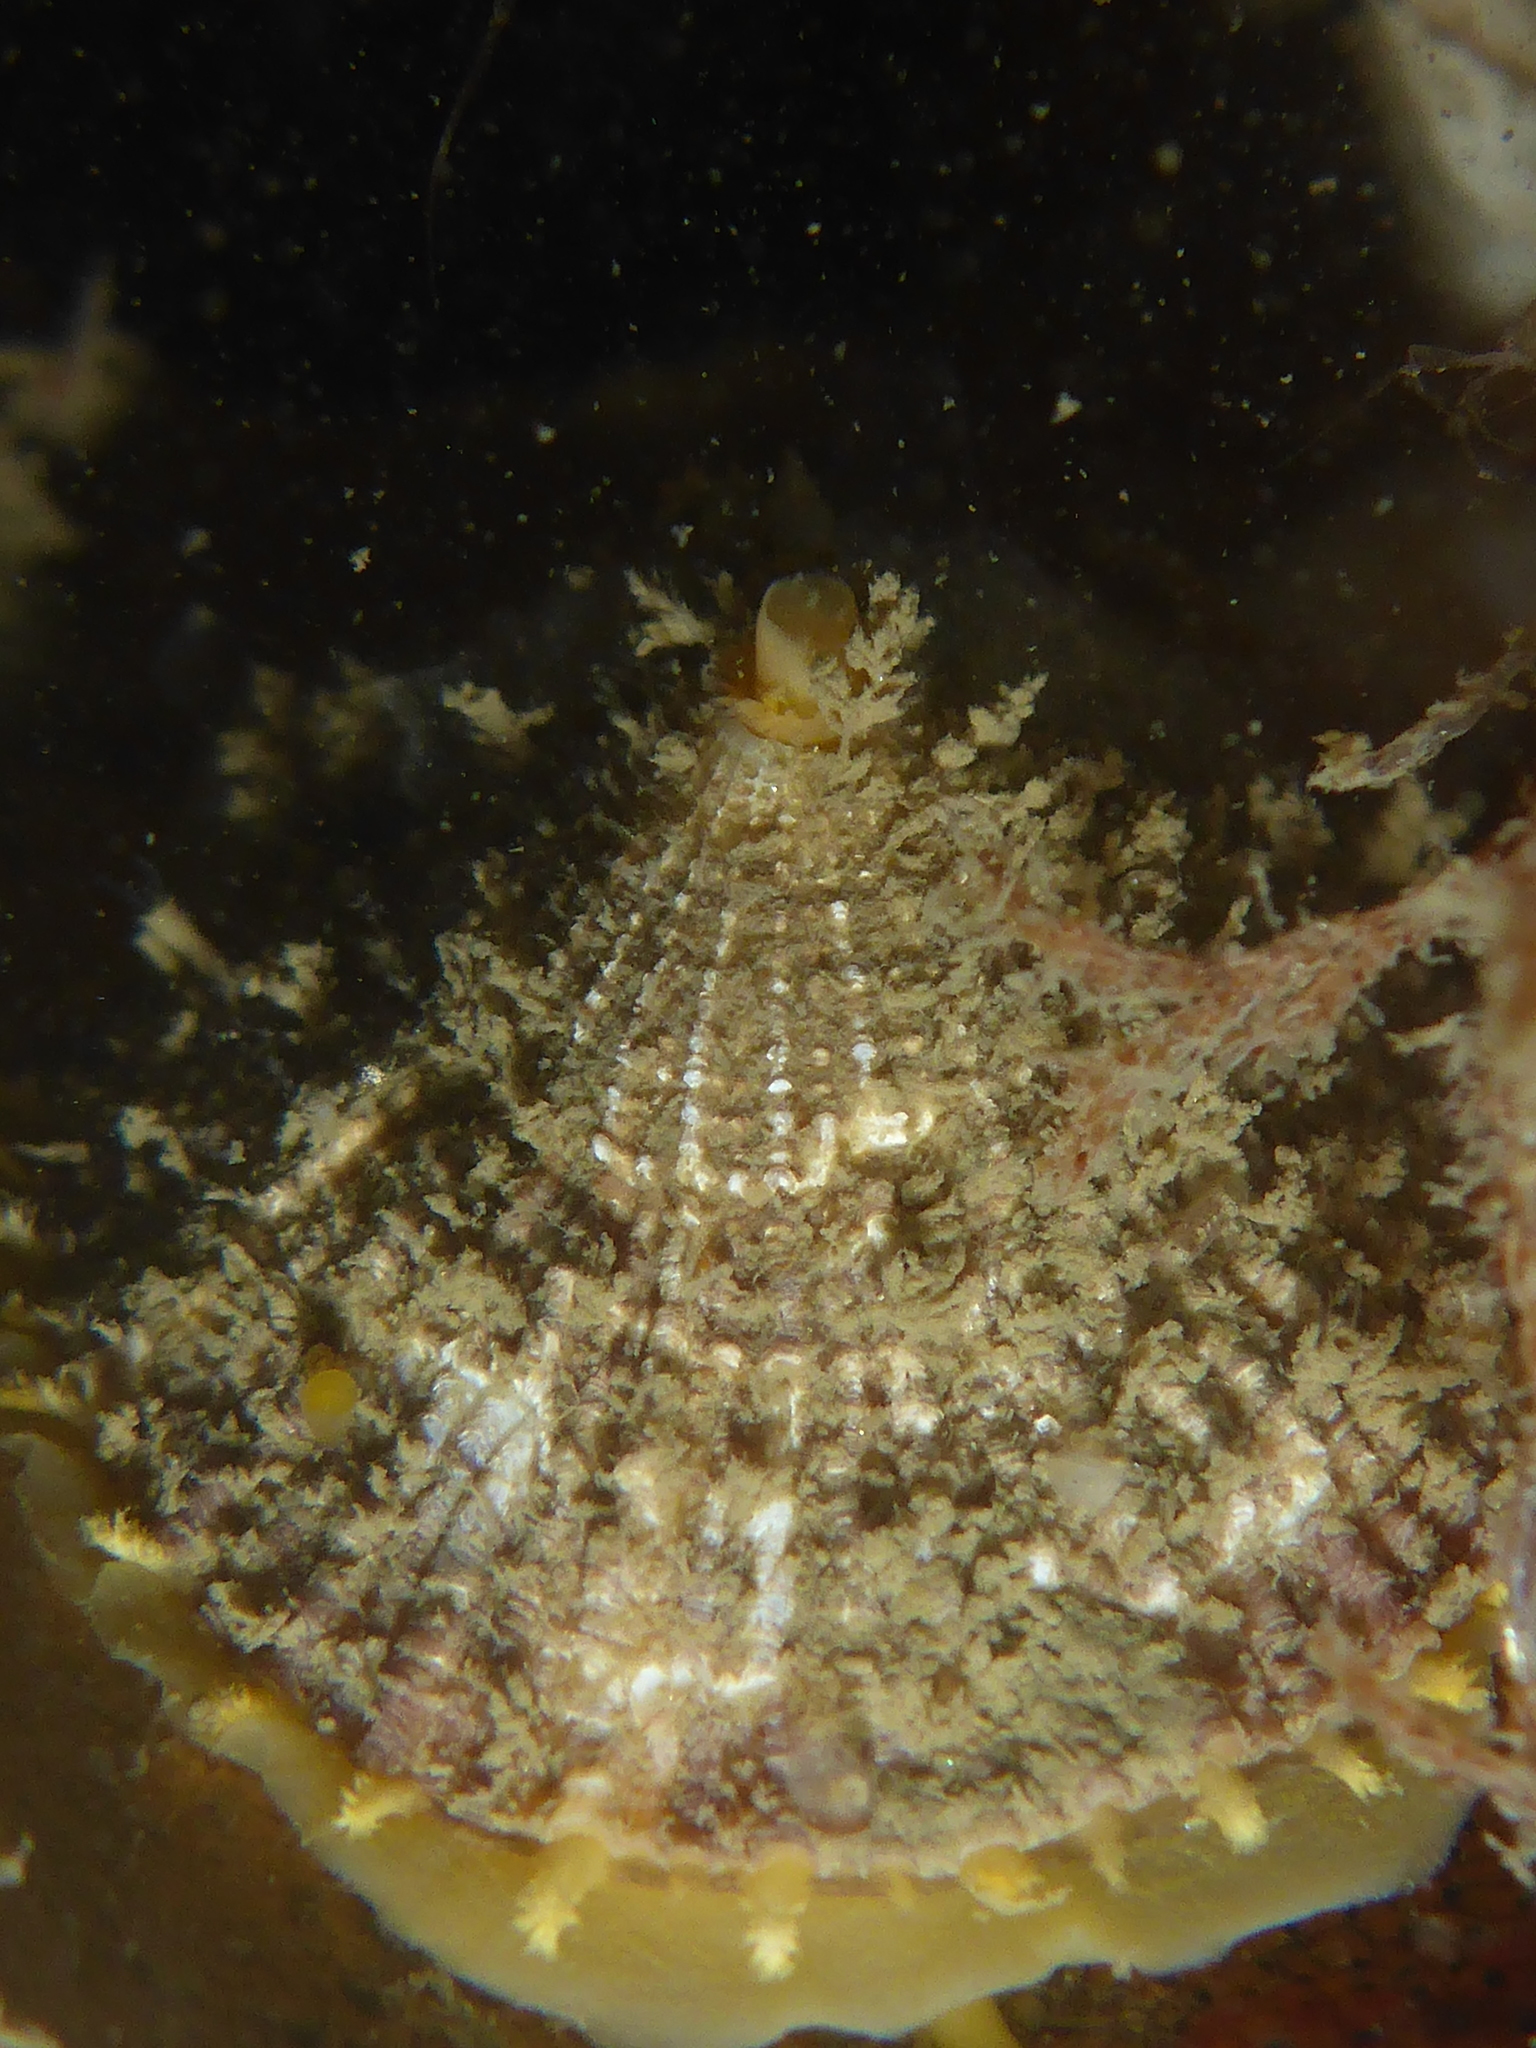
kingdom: Animalia
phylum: Mollusca
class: Gastropoda
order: Lepetellida
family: Fissurellidae
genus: Diodora
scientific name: Diodora aspera
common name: Rough keyhole limpet
